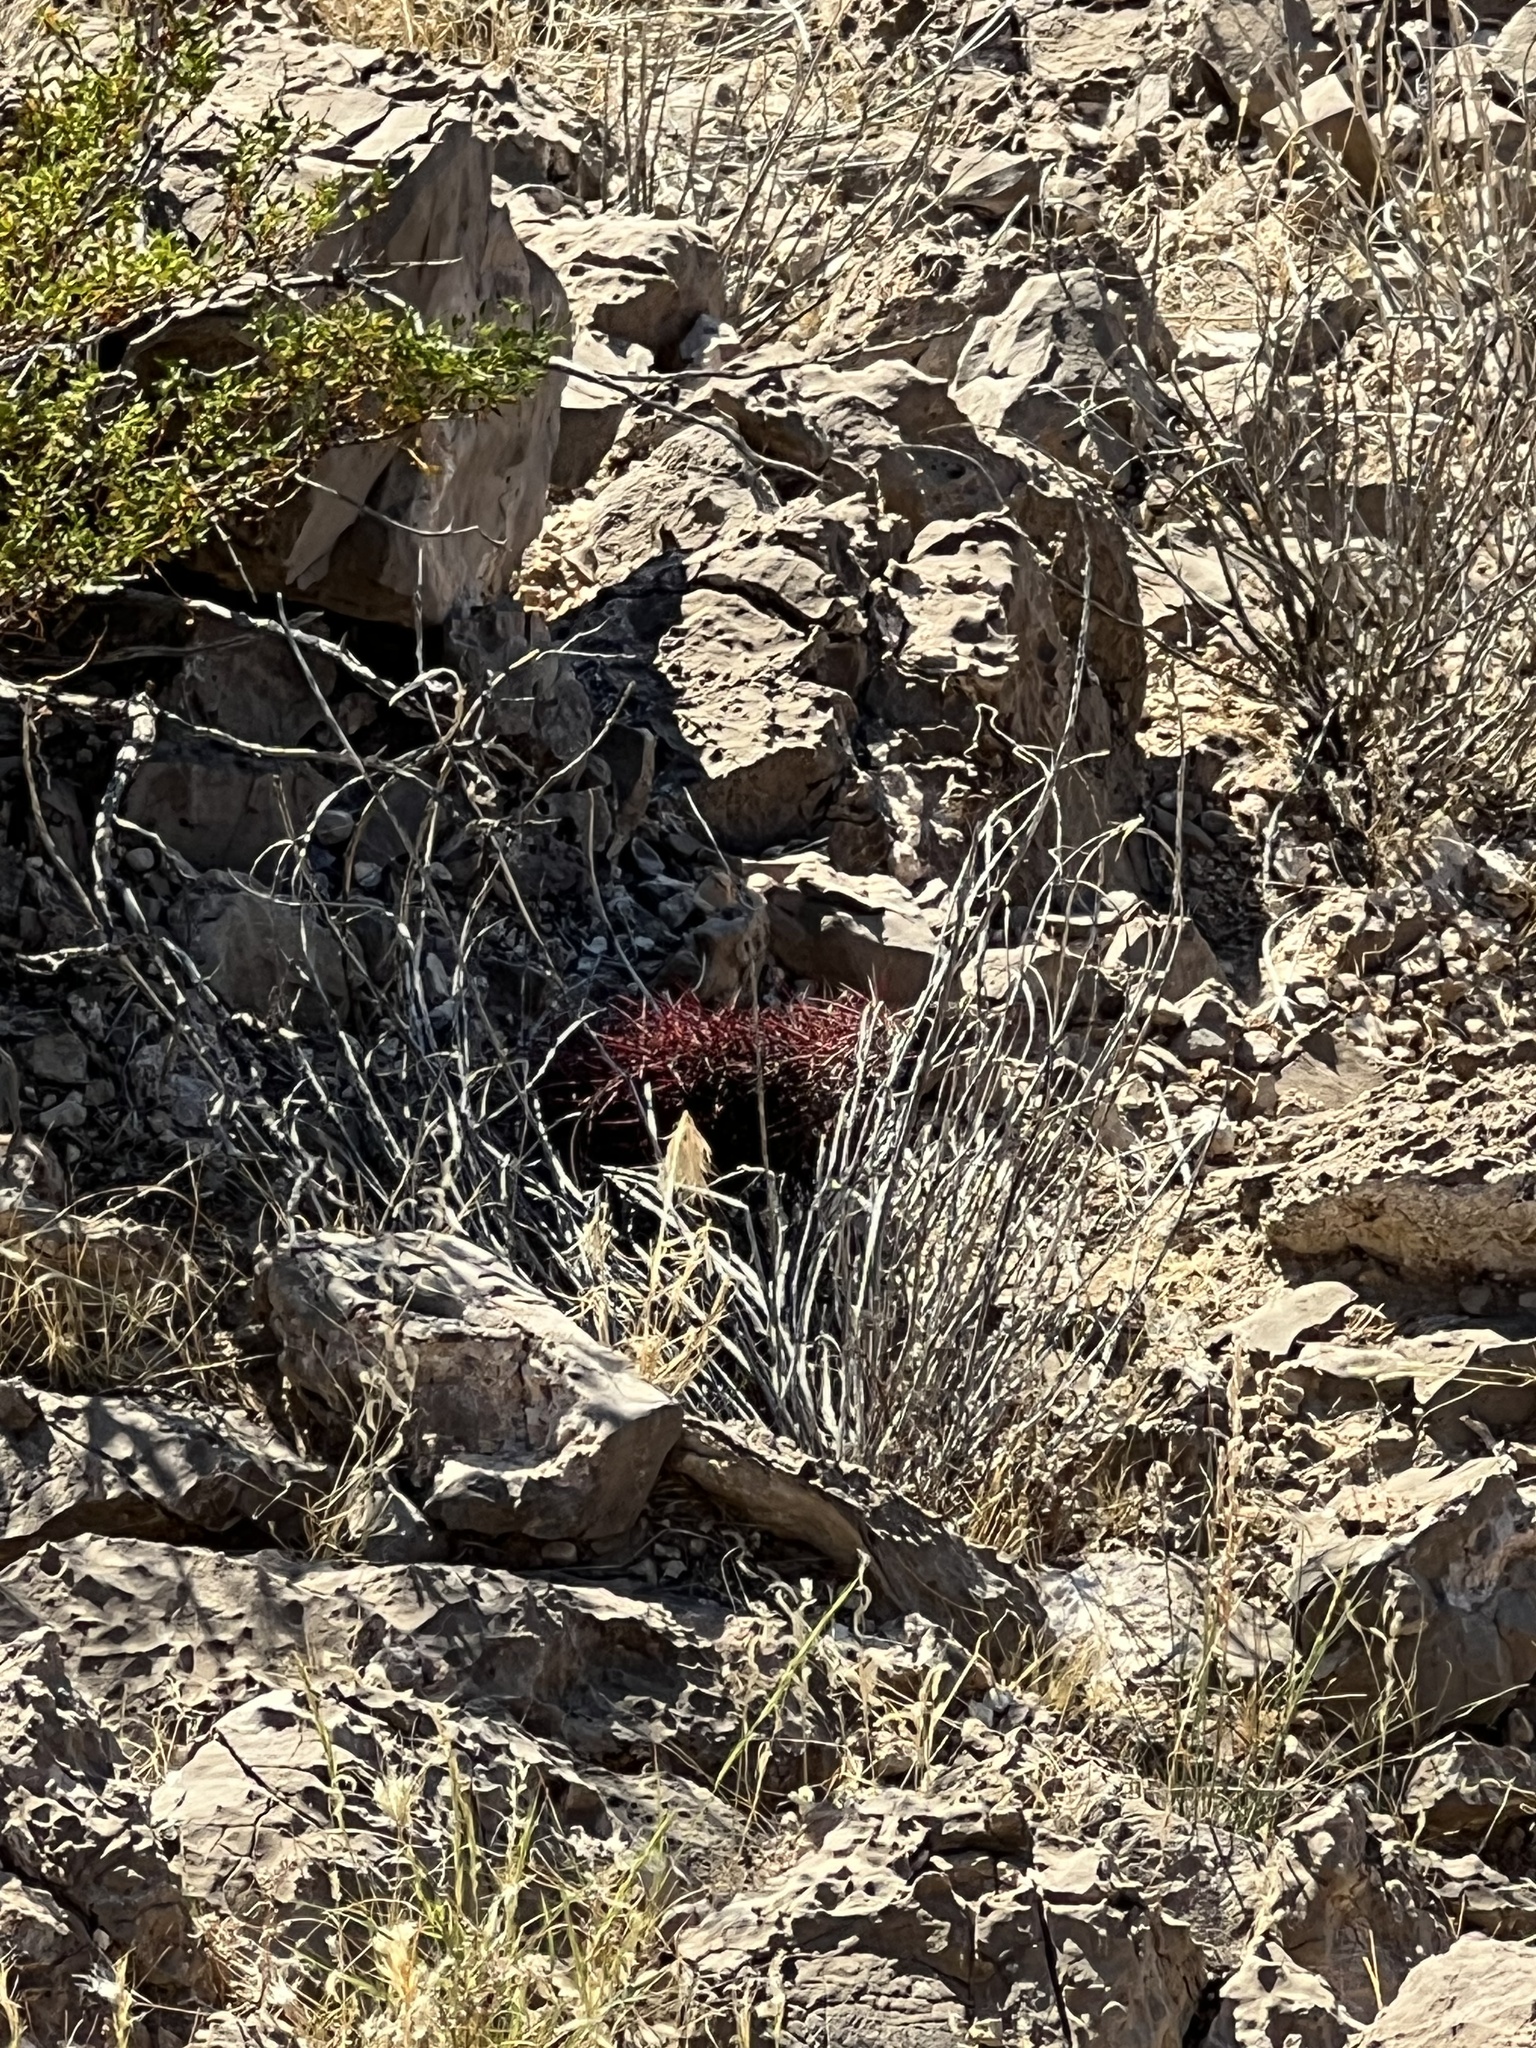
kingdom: Plantae
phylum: Tracheophyta
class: Magnoliopsida
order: Caryophyllales
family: Cactaceae
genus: Sclerocactus
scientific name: Sclerocactus johnsonii
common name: Eight-spine fishhook cactus
